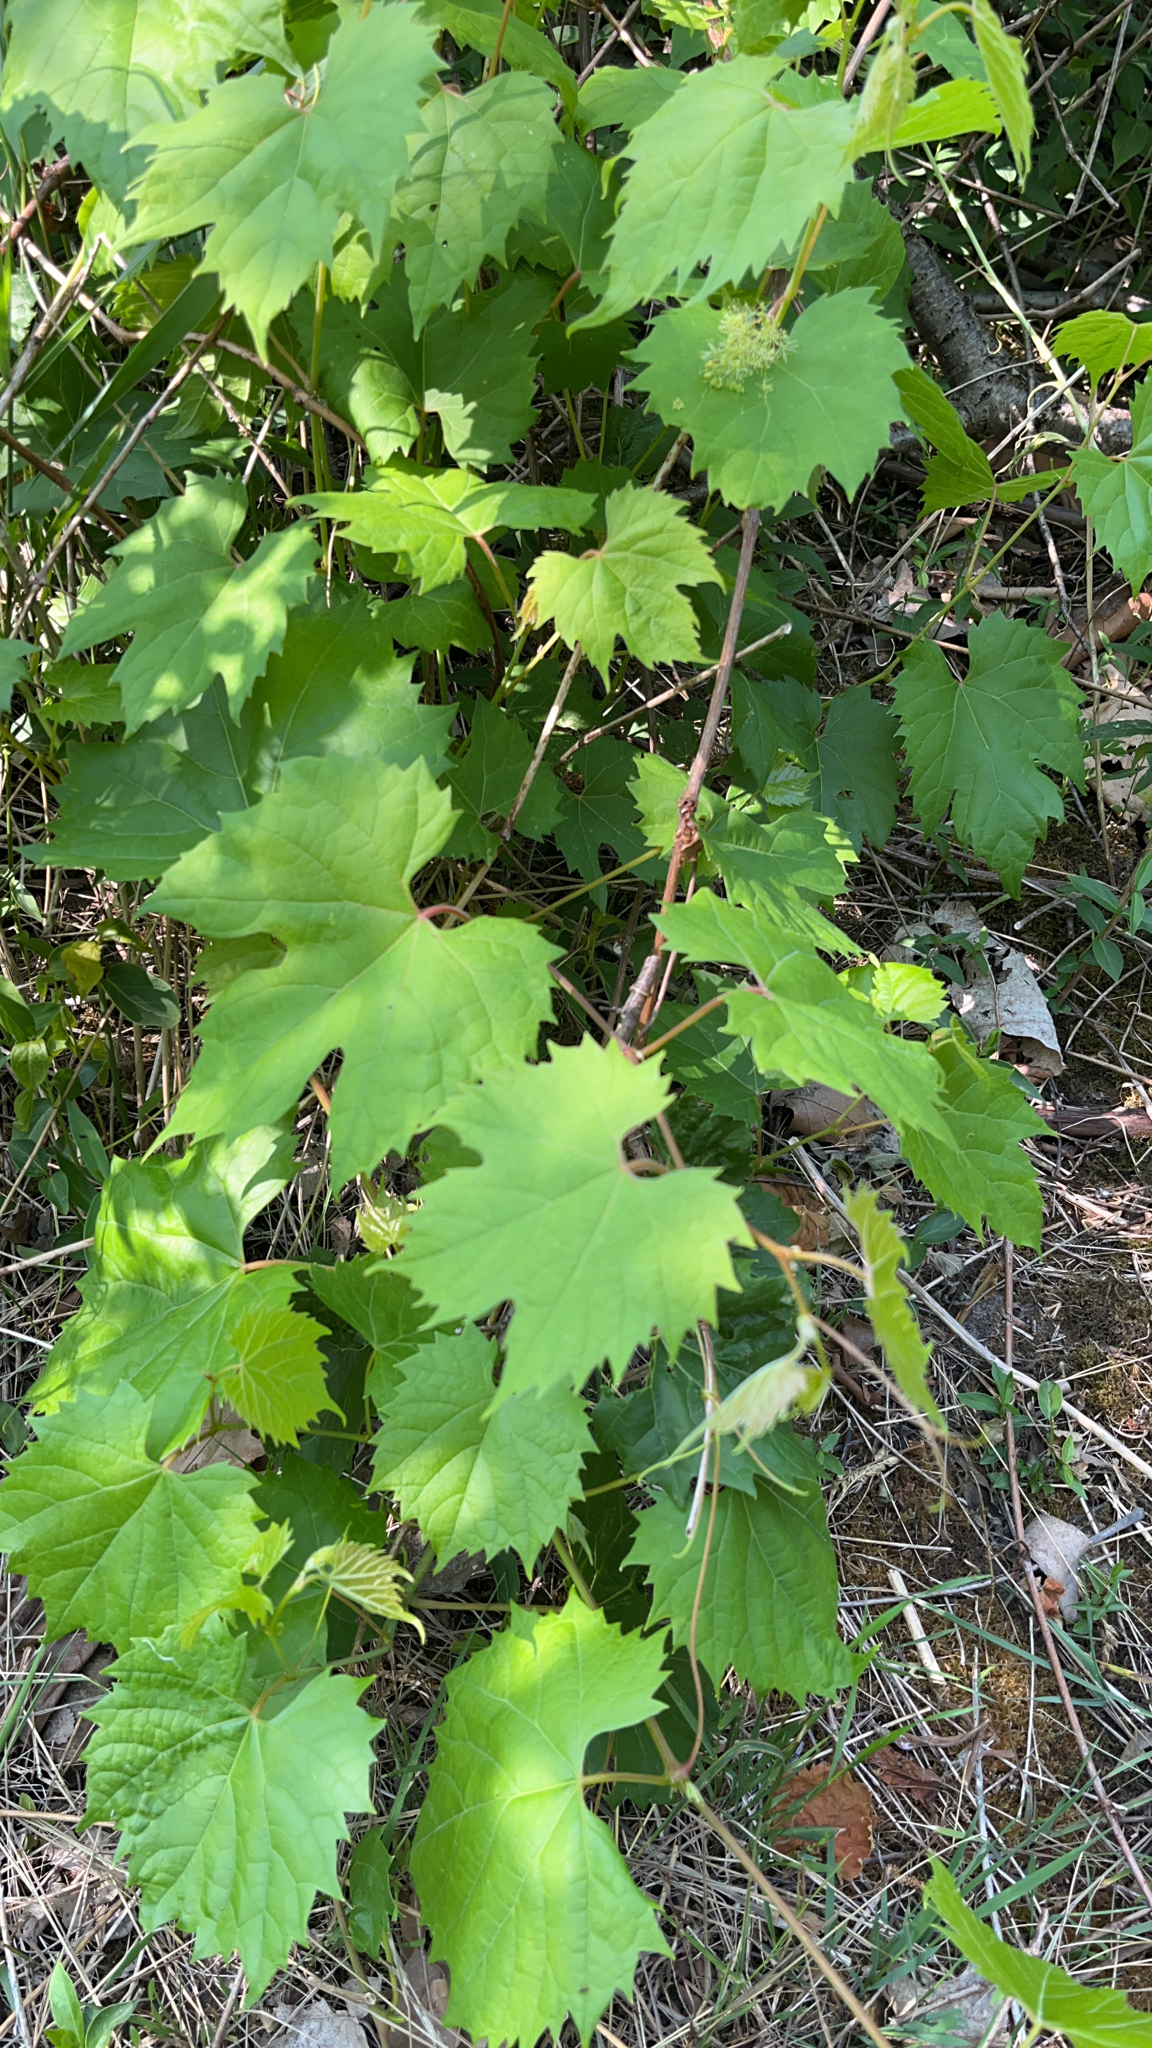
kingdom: Plantae
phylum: Tracheophyta
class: Magnoliopsida
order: Vitales
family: Vitaceae
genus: Vitis
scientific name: Vitis riparia
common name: Frost grape
